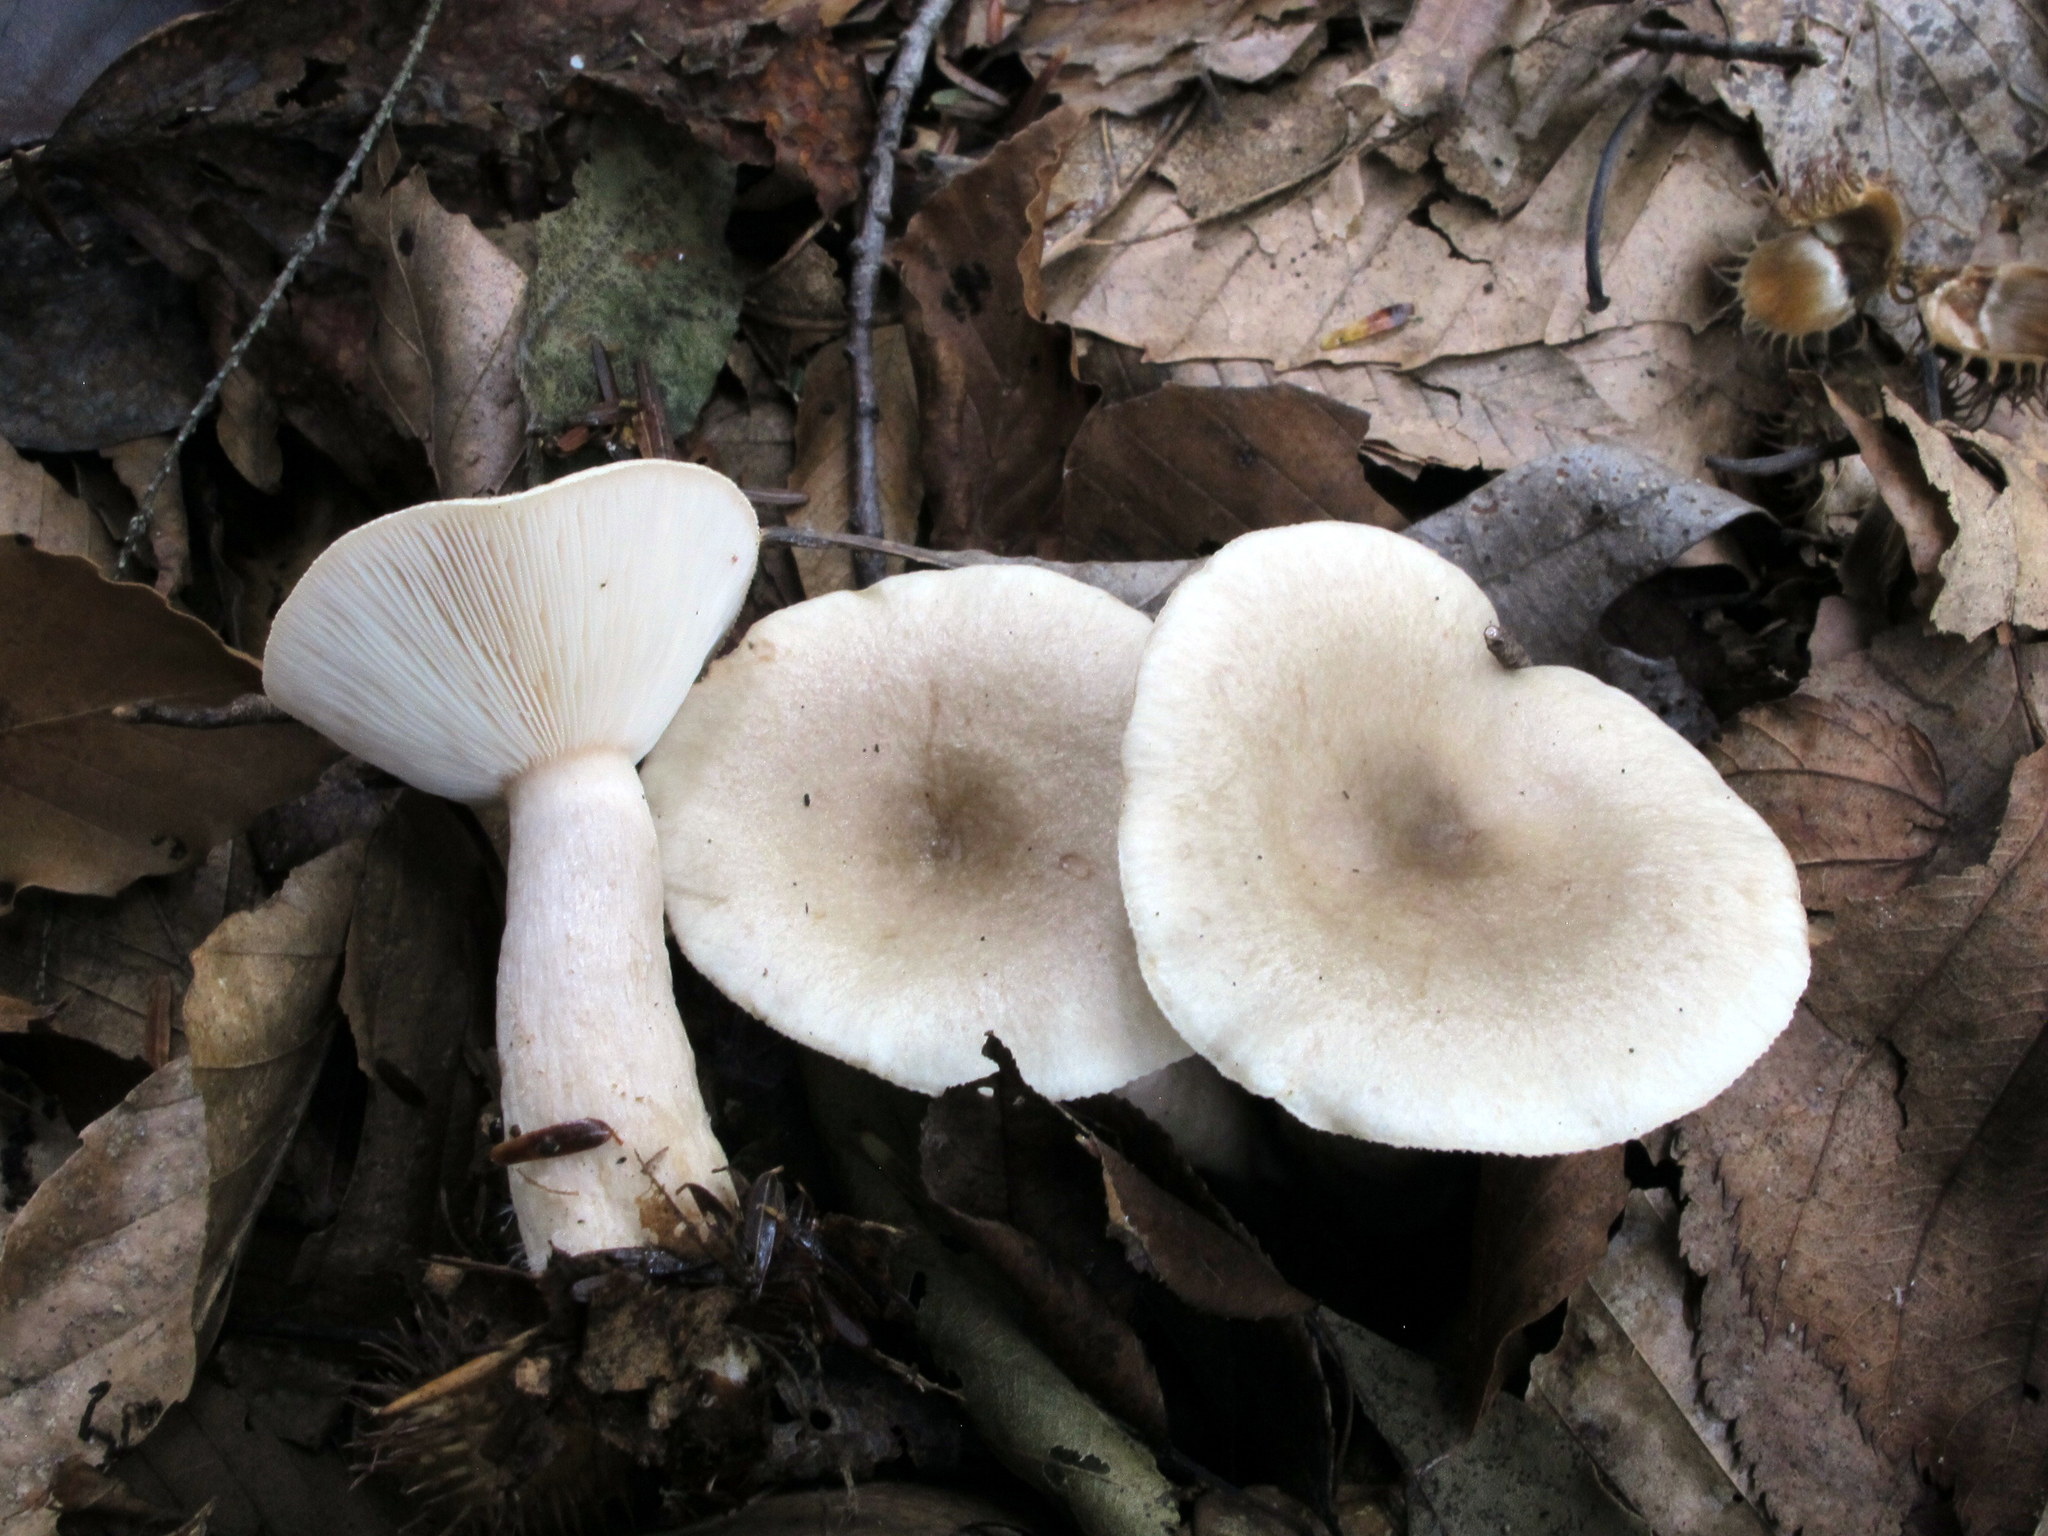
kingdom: Fungi
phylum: Basidiomycota
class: Agaricomycetes
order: Russulales
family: Russulaceae
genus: Lactarius
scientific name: Lactarius cinereus
